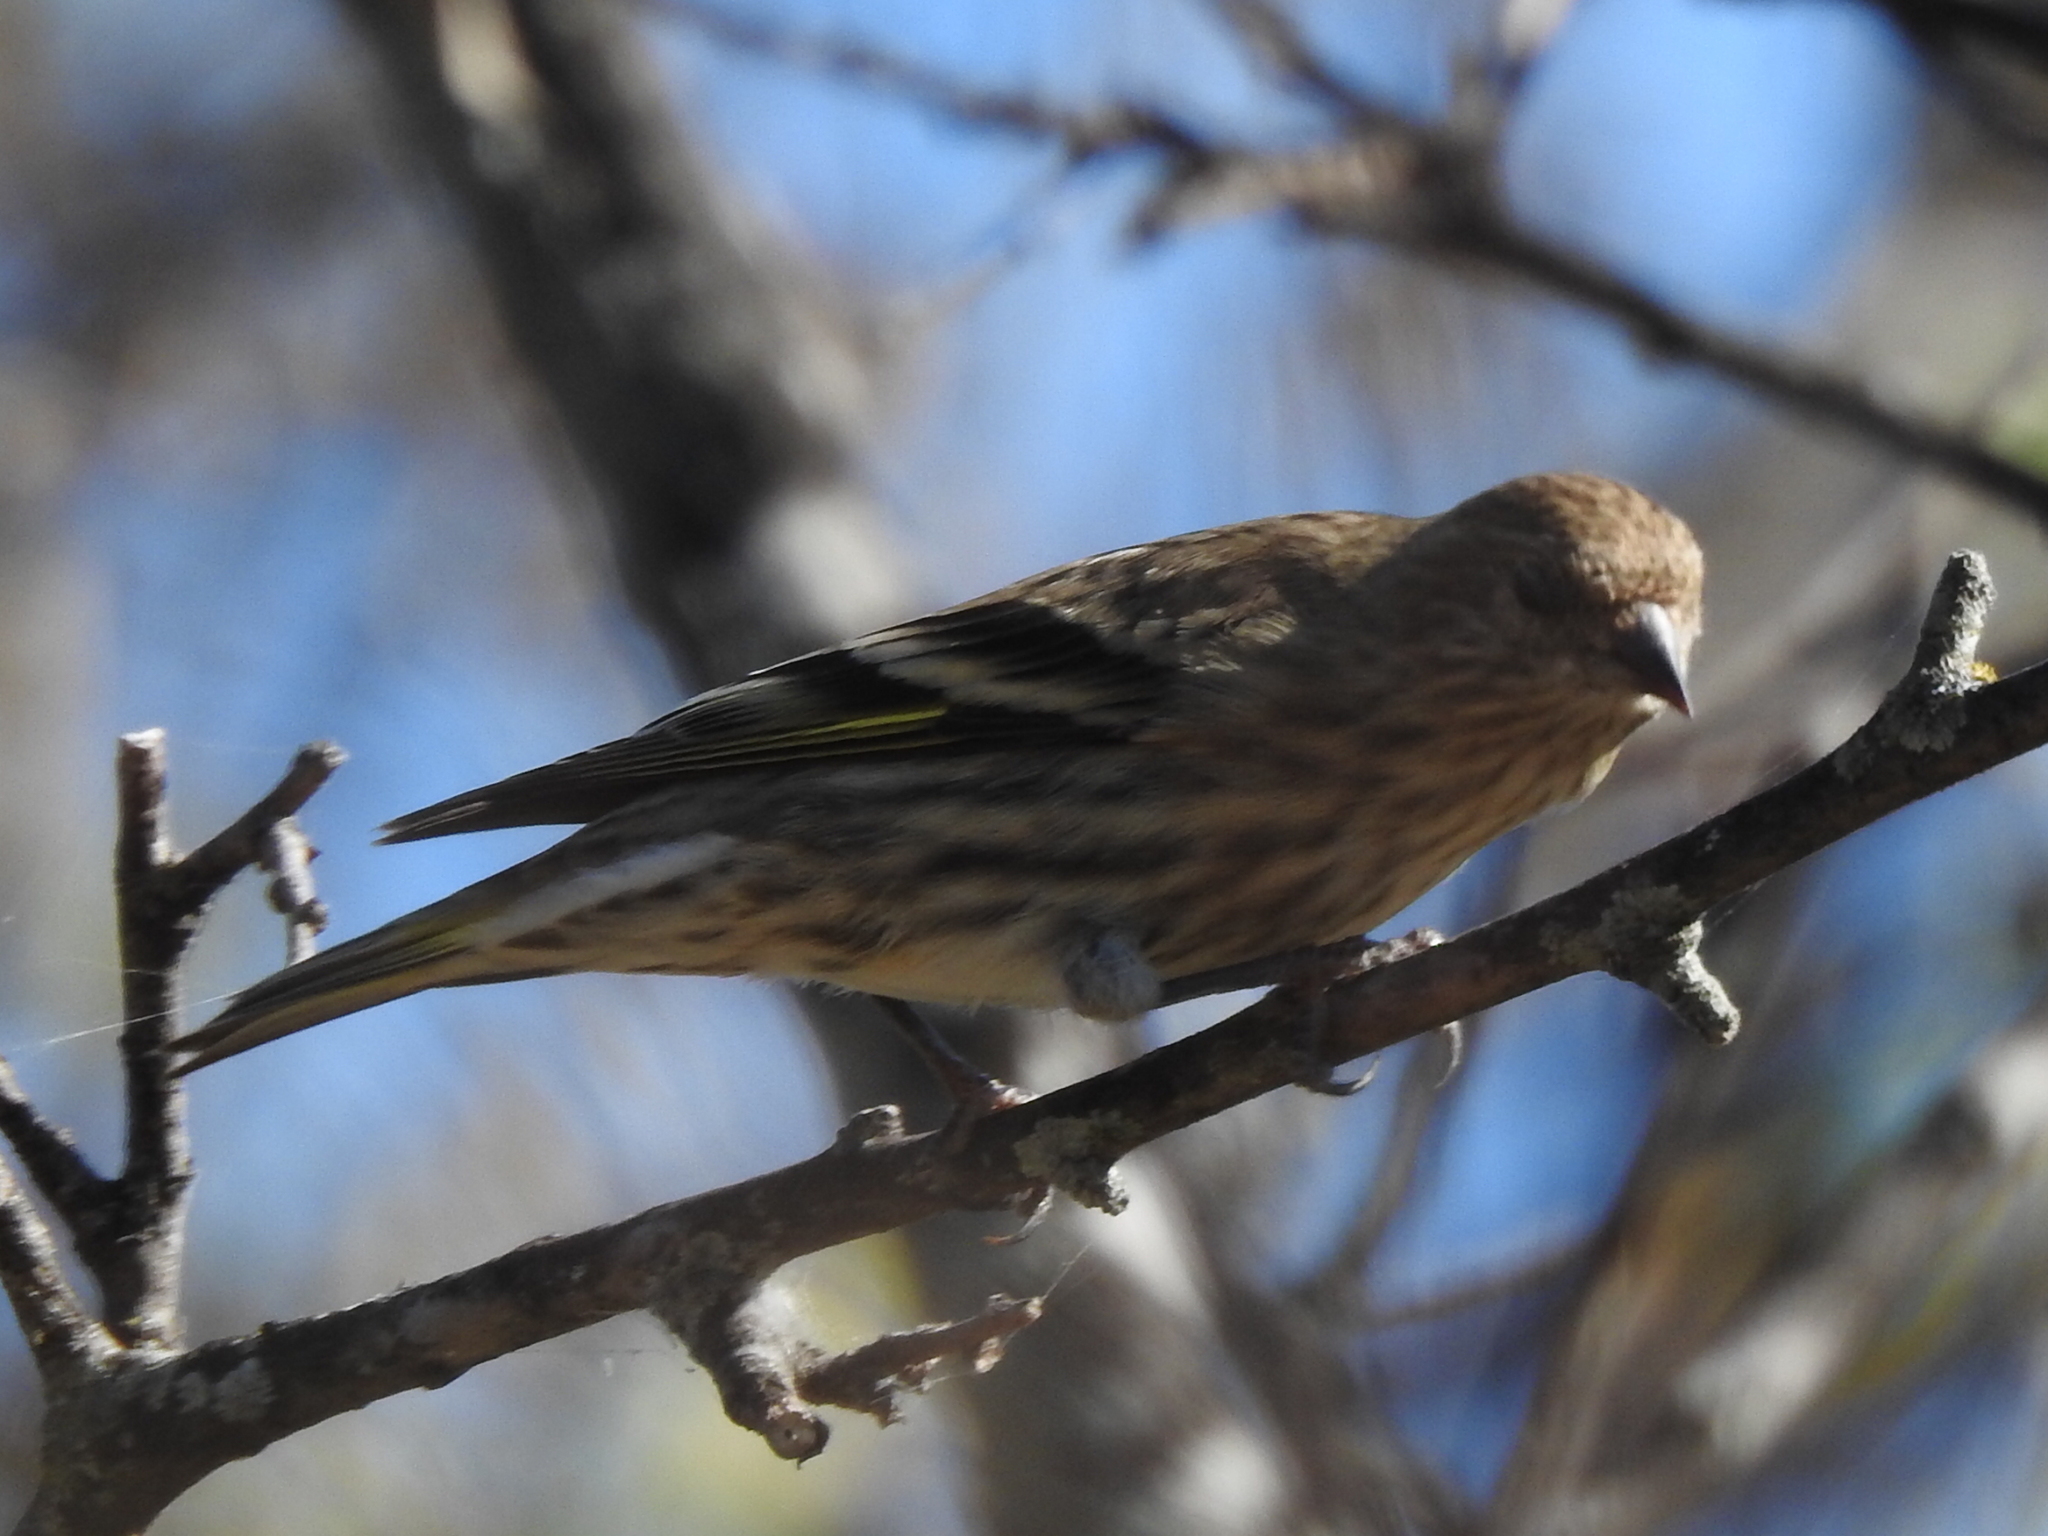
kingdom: Animalia
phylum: Chordata
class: Aves
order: Passeriformes
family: Fringillidae
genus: Spinus
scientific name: Spinus pinus
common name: Pine siskin
